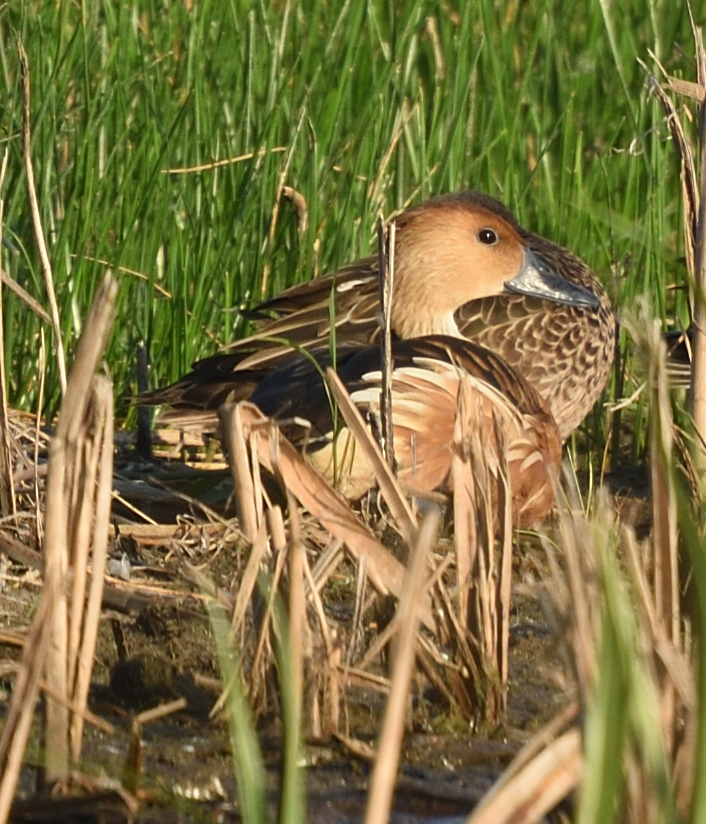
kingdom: Animalia
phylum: Chordata
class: Aves
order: Anseriformes
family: Anatidae
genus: Dendrocygna
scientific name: Dendrocygna bicolor
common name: Fulvous whistling duck
